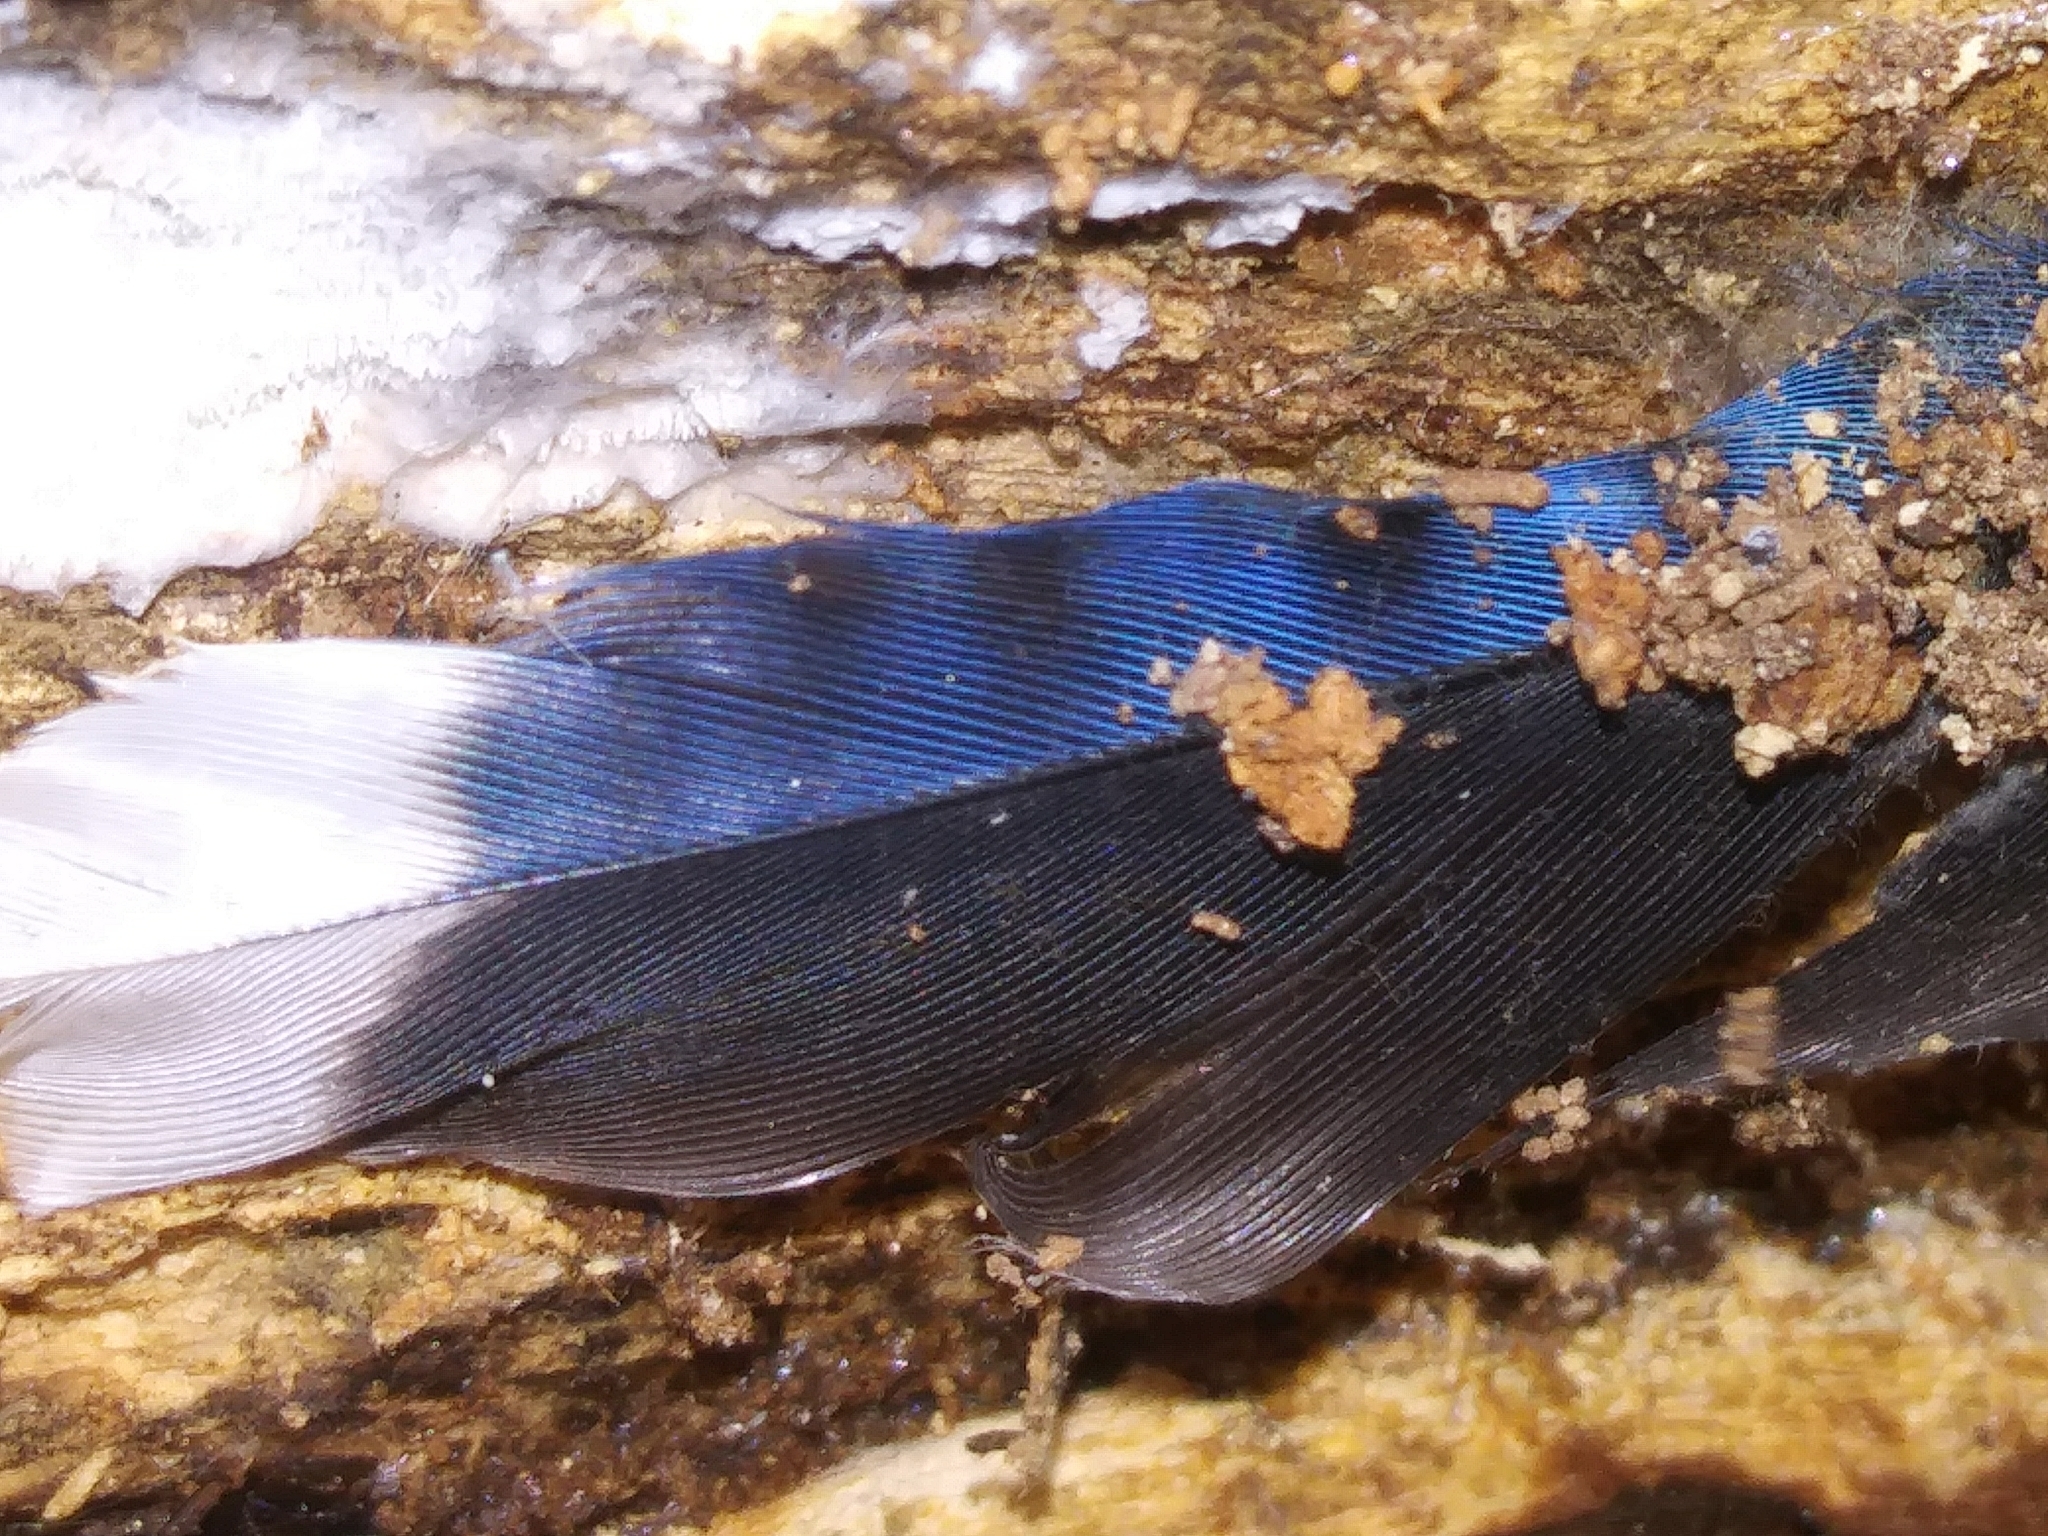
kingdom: Animalia
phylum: Chordata
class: Aves
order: Passeriformes
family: Corvidae
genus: Cyanocitta
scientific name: Cyanocitta cristata
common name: Blue jay
